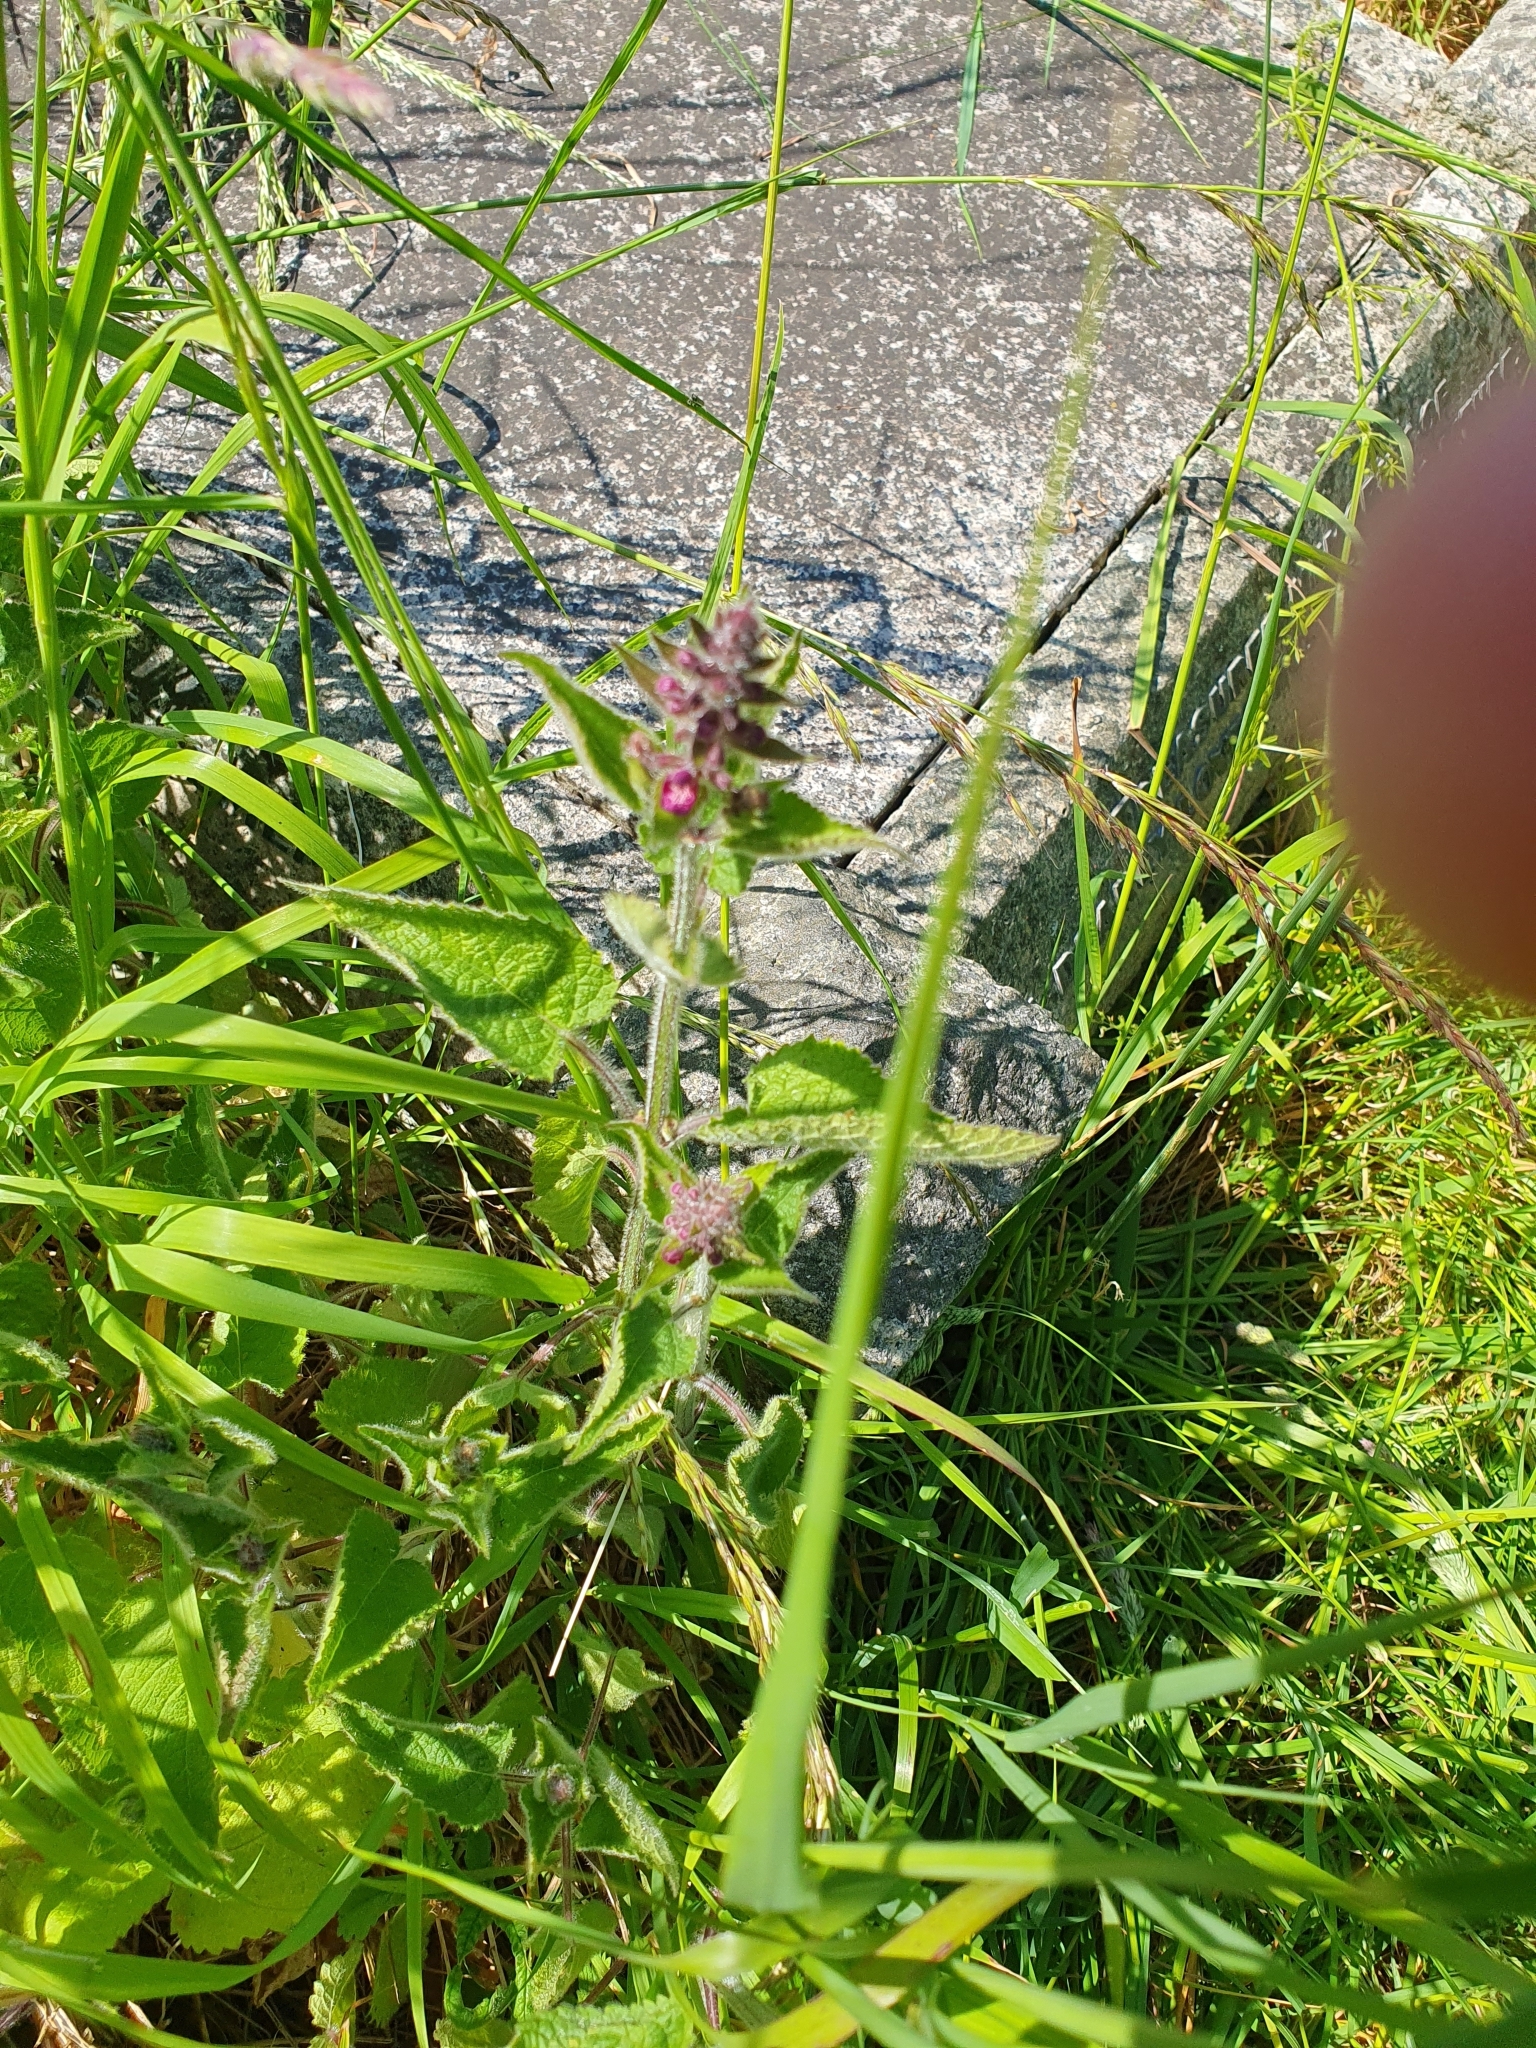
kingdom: Plantae
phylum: Tracheophyta
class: Magnoliopsida
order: Lamiales
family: Lamiaceae
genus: Stachys
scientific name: Stachys sylvatica
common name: Hedge woundwort
